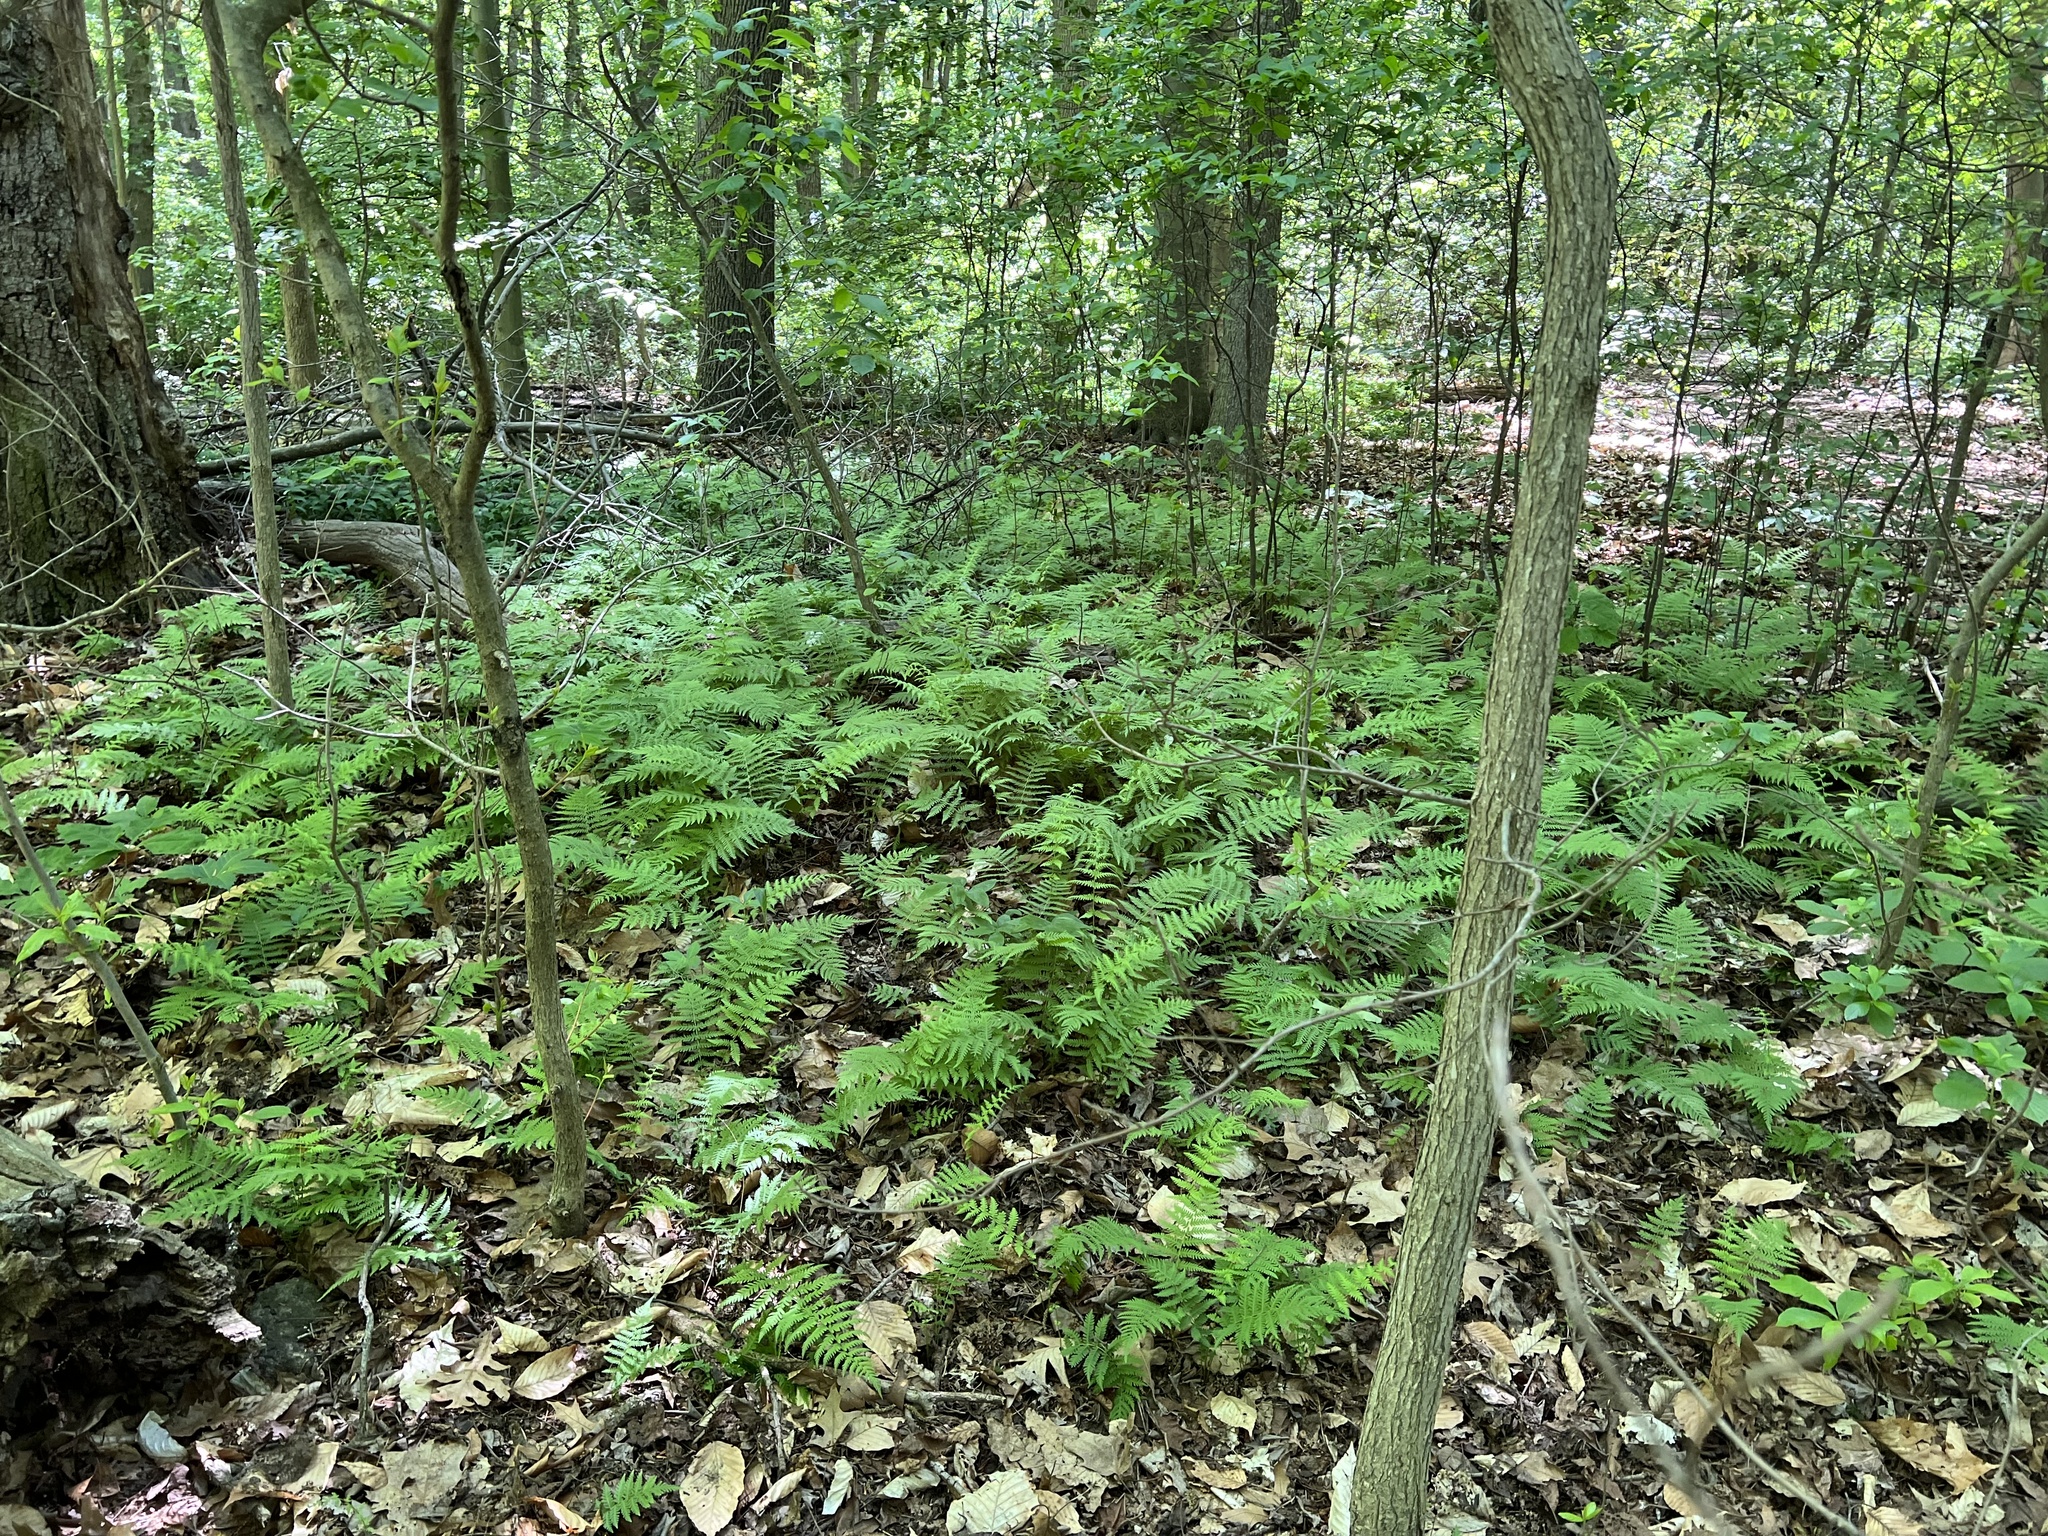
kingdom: Plantae
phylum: Tracheophyta
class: Polypodiopsida
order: Polypodiales
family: Thelypteridaceae
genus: Amauropelta
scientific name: Amauropelta noveboracensis
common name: New york fern
